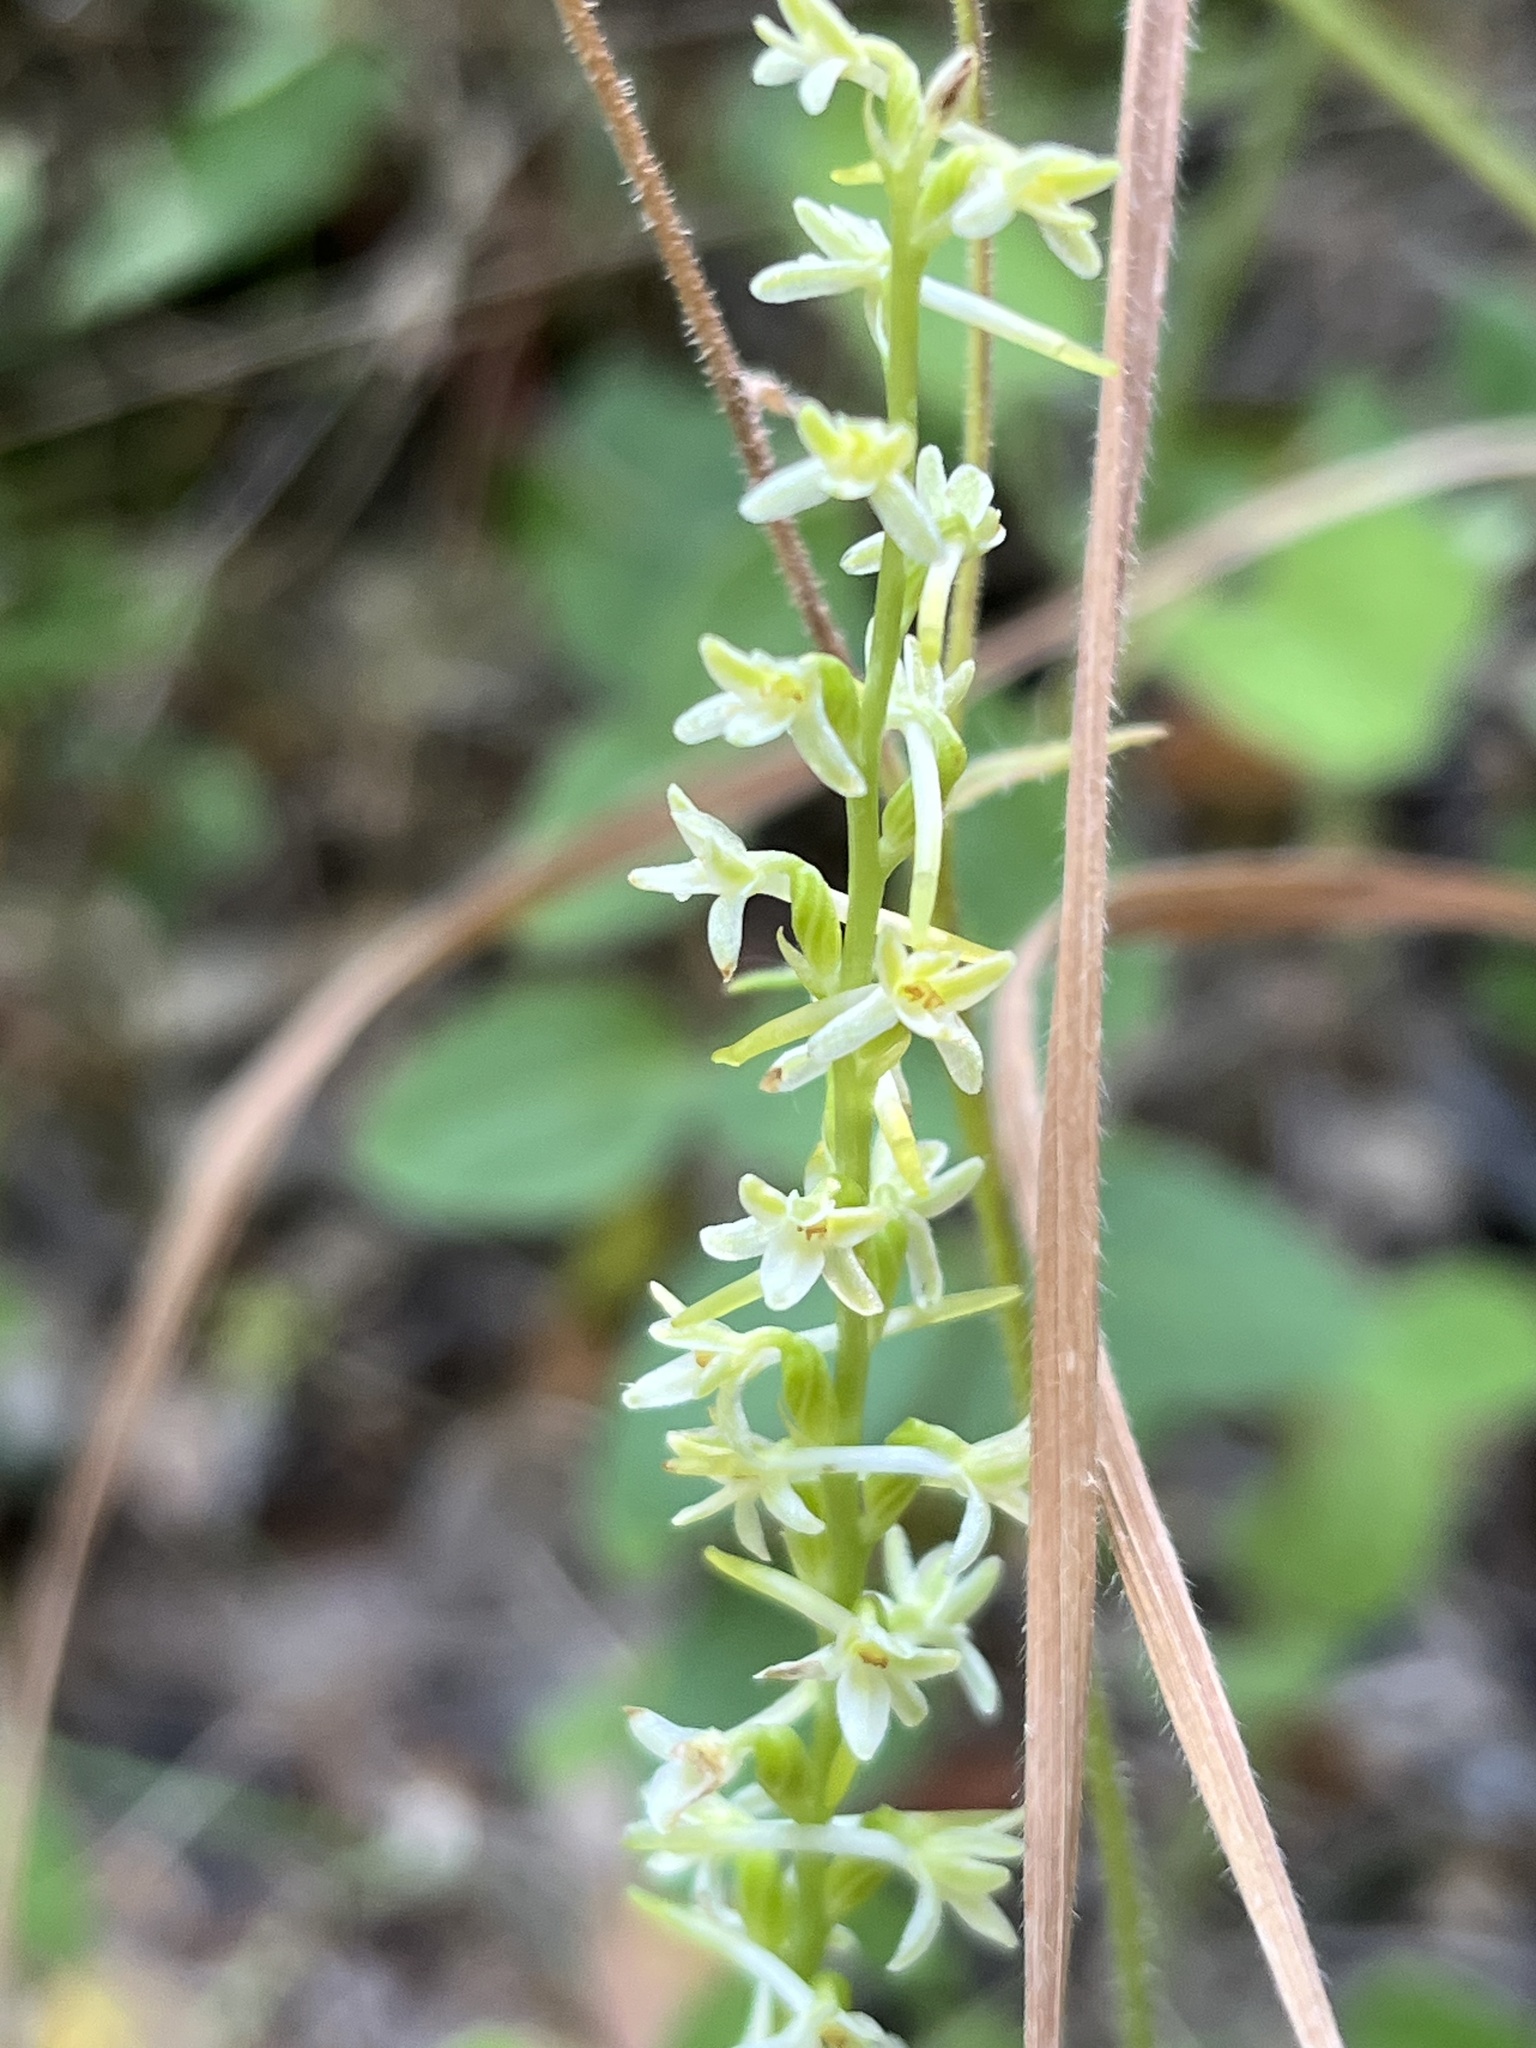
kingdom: Plantae
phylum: Tracheophyta
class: Liliopsida
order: Asparagales
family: Orchidaceae
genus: Platanthera
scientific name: Platanthera transversa
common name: Royal rein orchid
